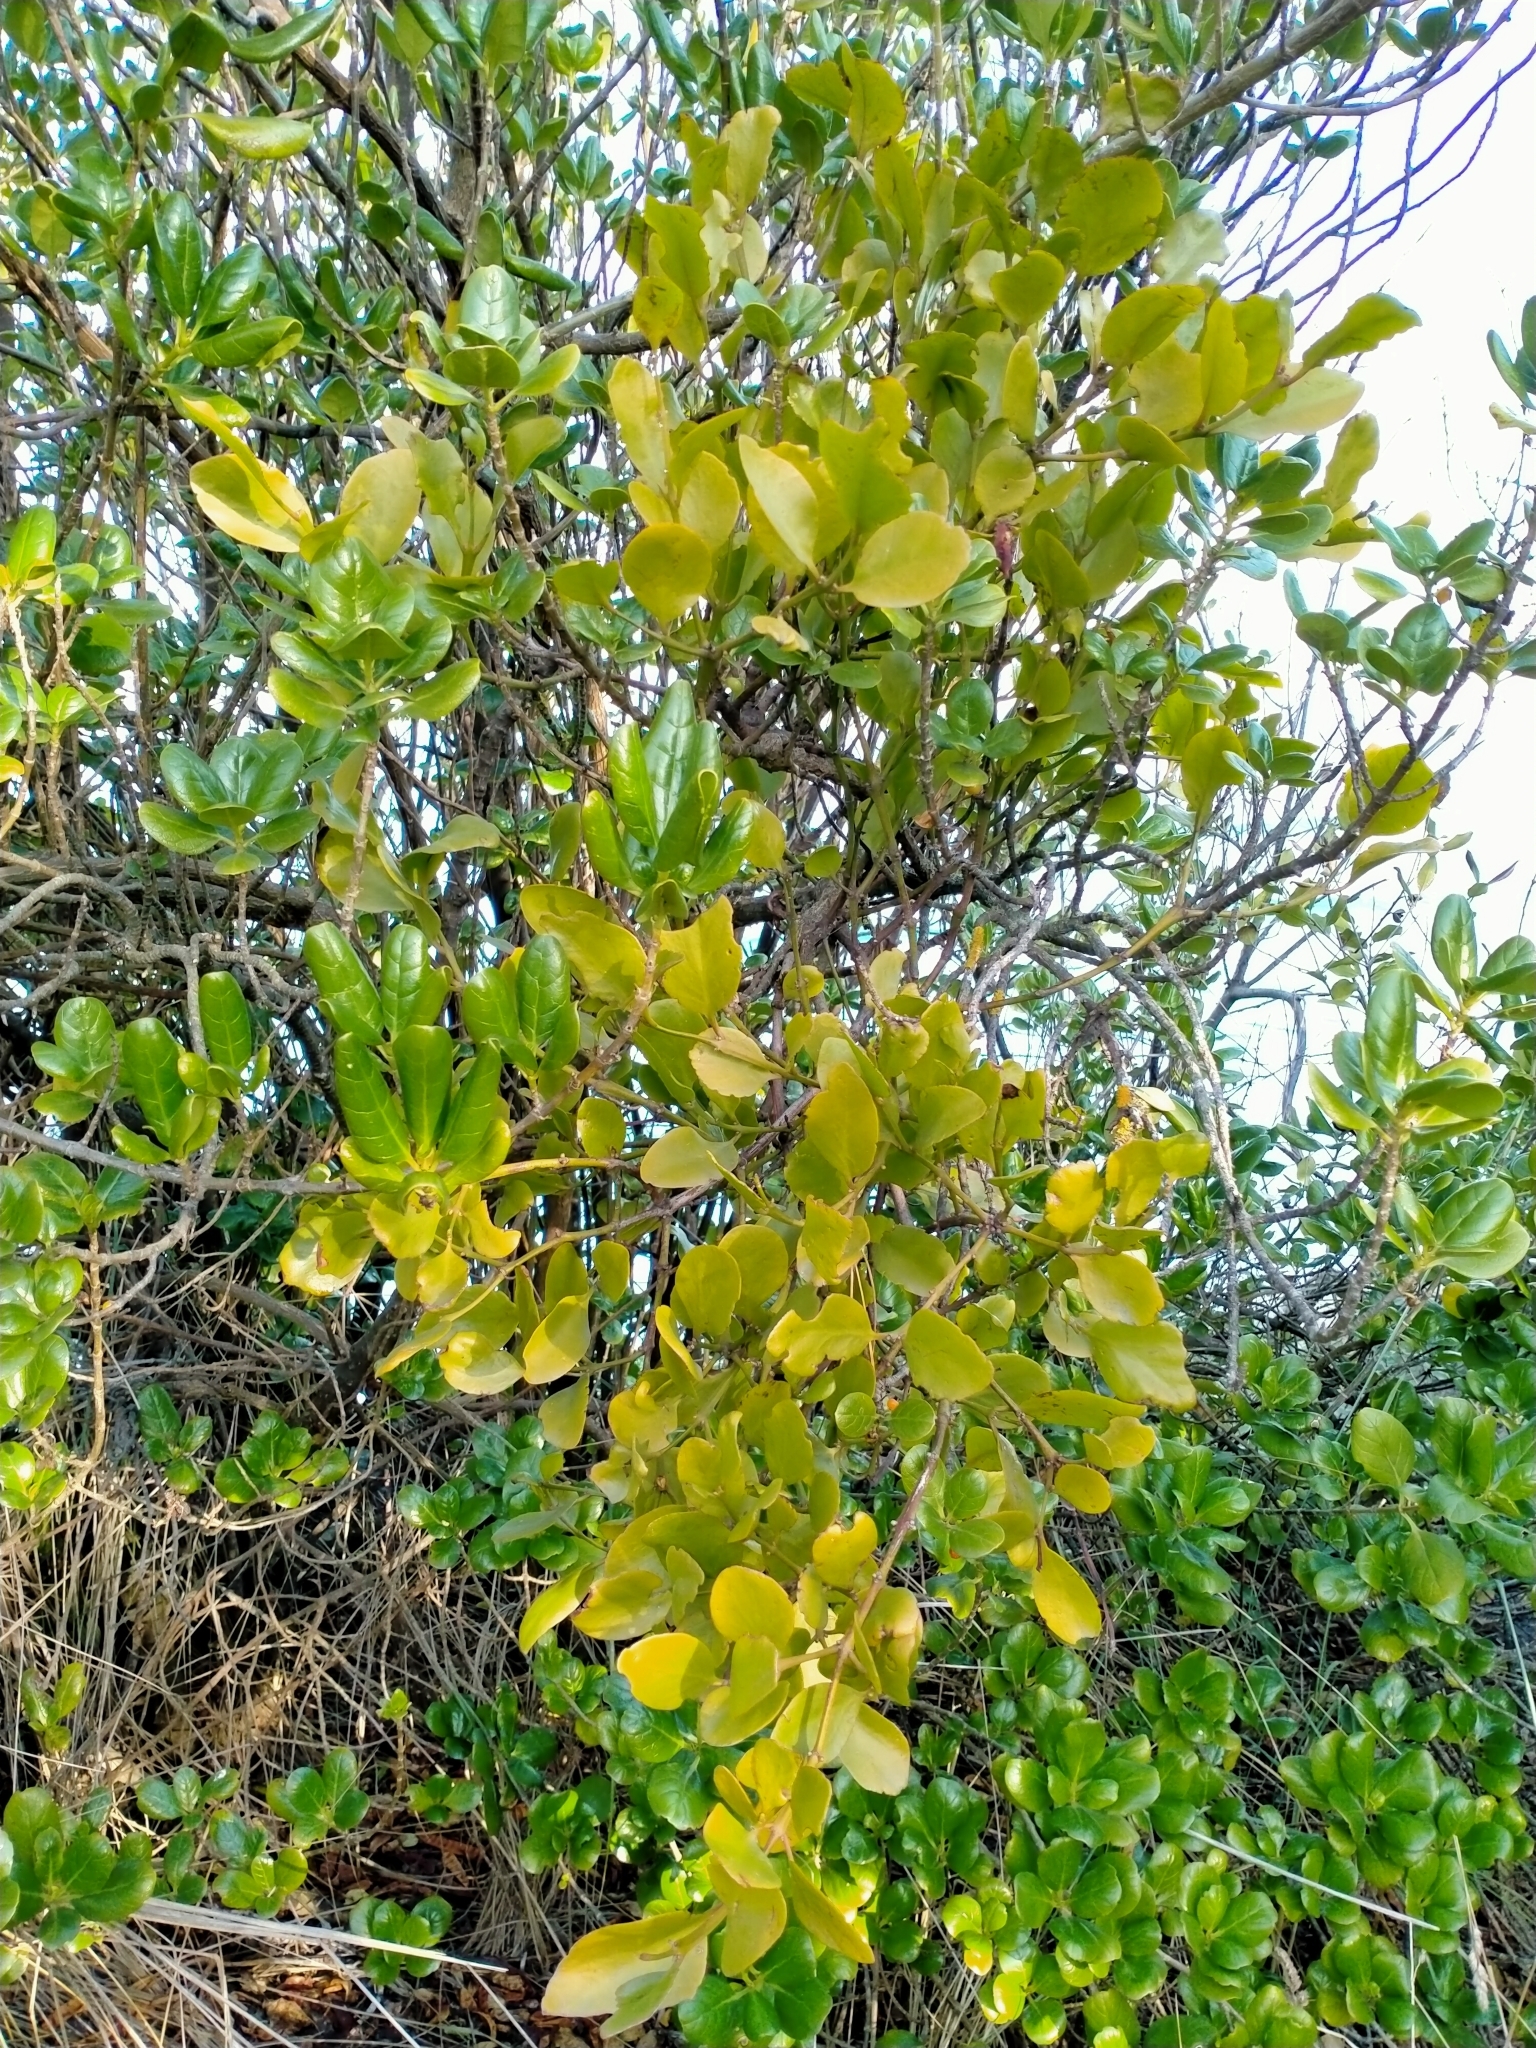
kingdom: Plantae
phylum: Tracheophyta
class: Magnoliopsida
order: Santalales
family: Loranthaceae
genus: Ileostylus
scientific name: Ileostylus micranthus
